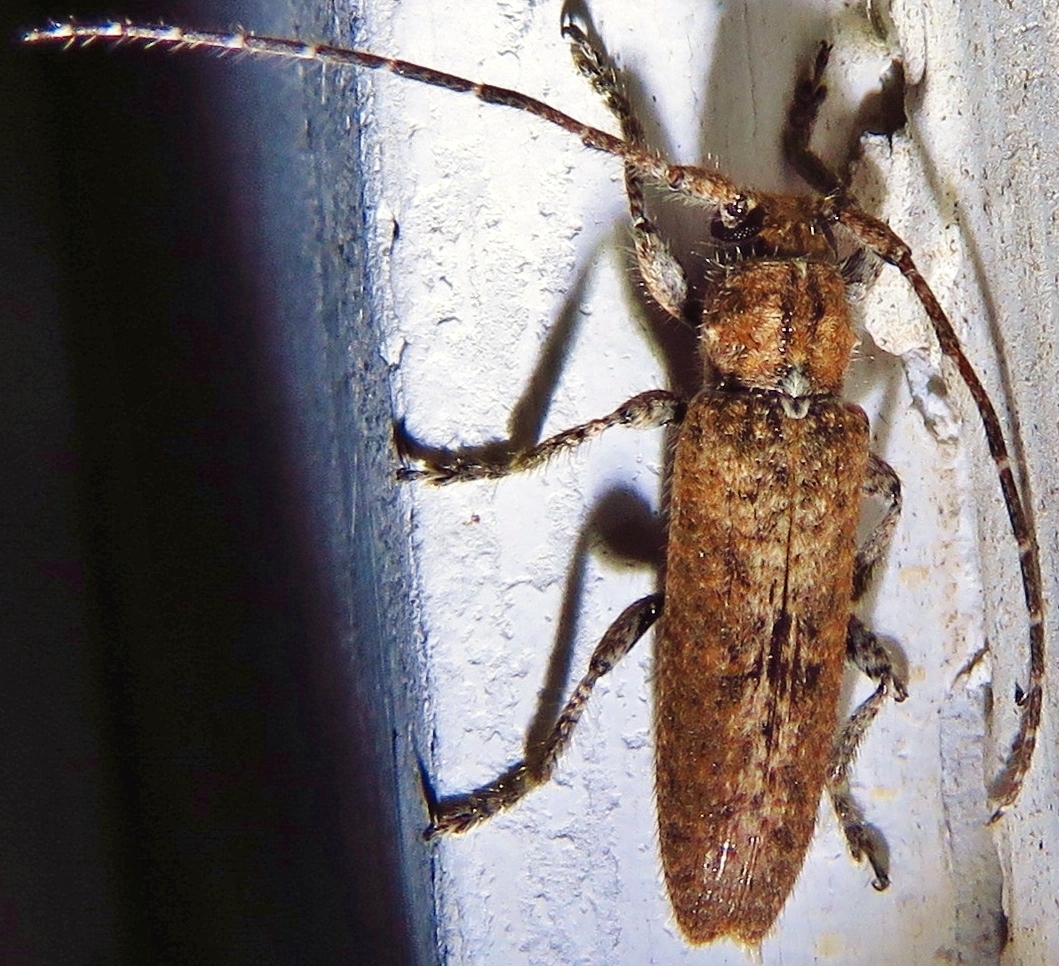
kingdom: Animalia
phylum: Arthropoda
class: Insecta
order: Coleoptera
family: Cerambycidae
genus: Ataxia
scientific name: Ataxia crypta
